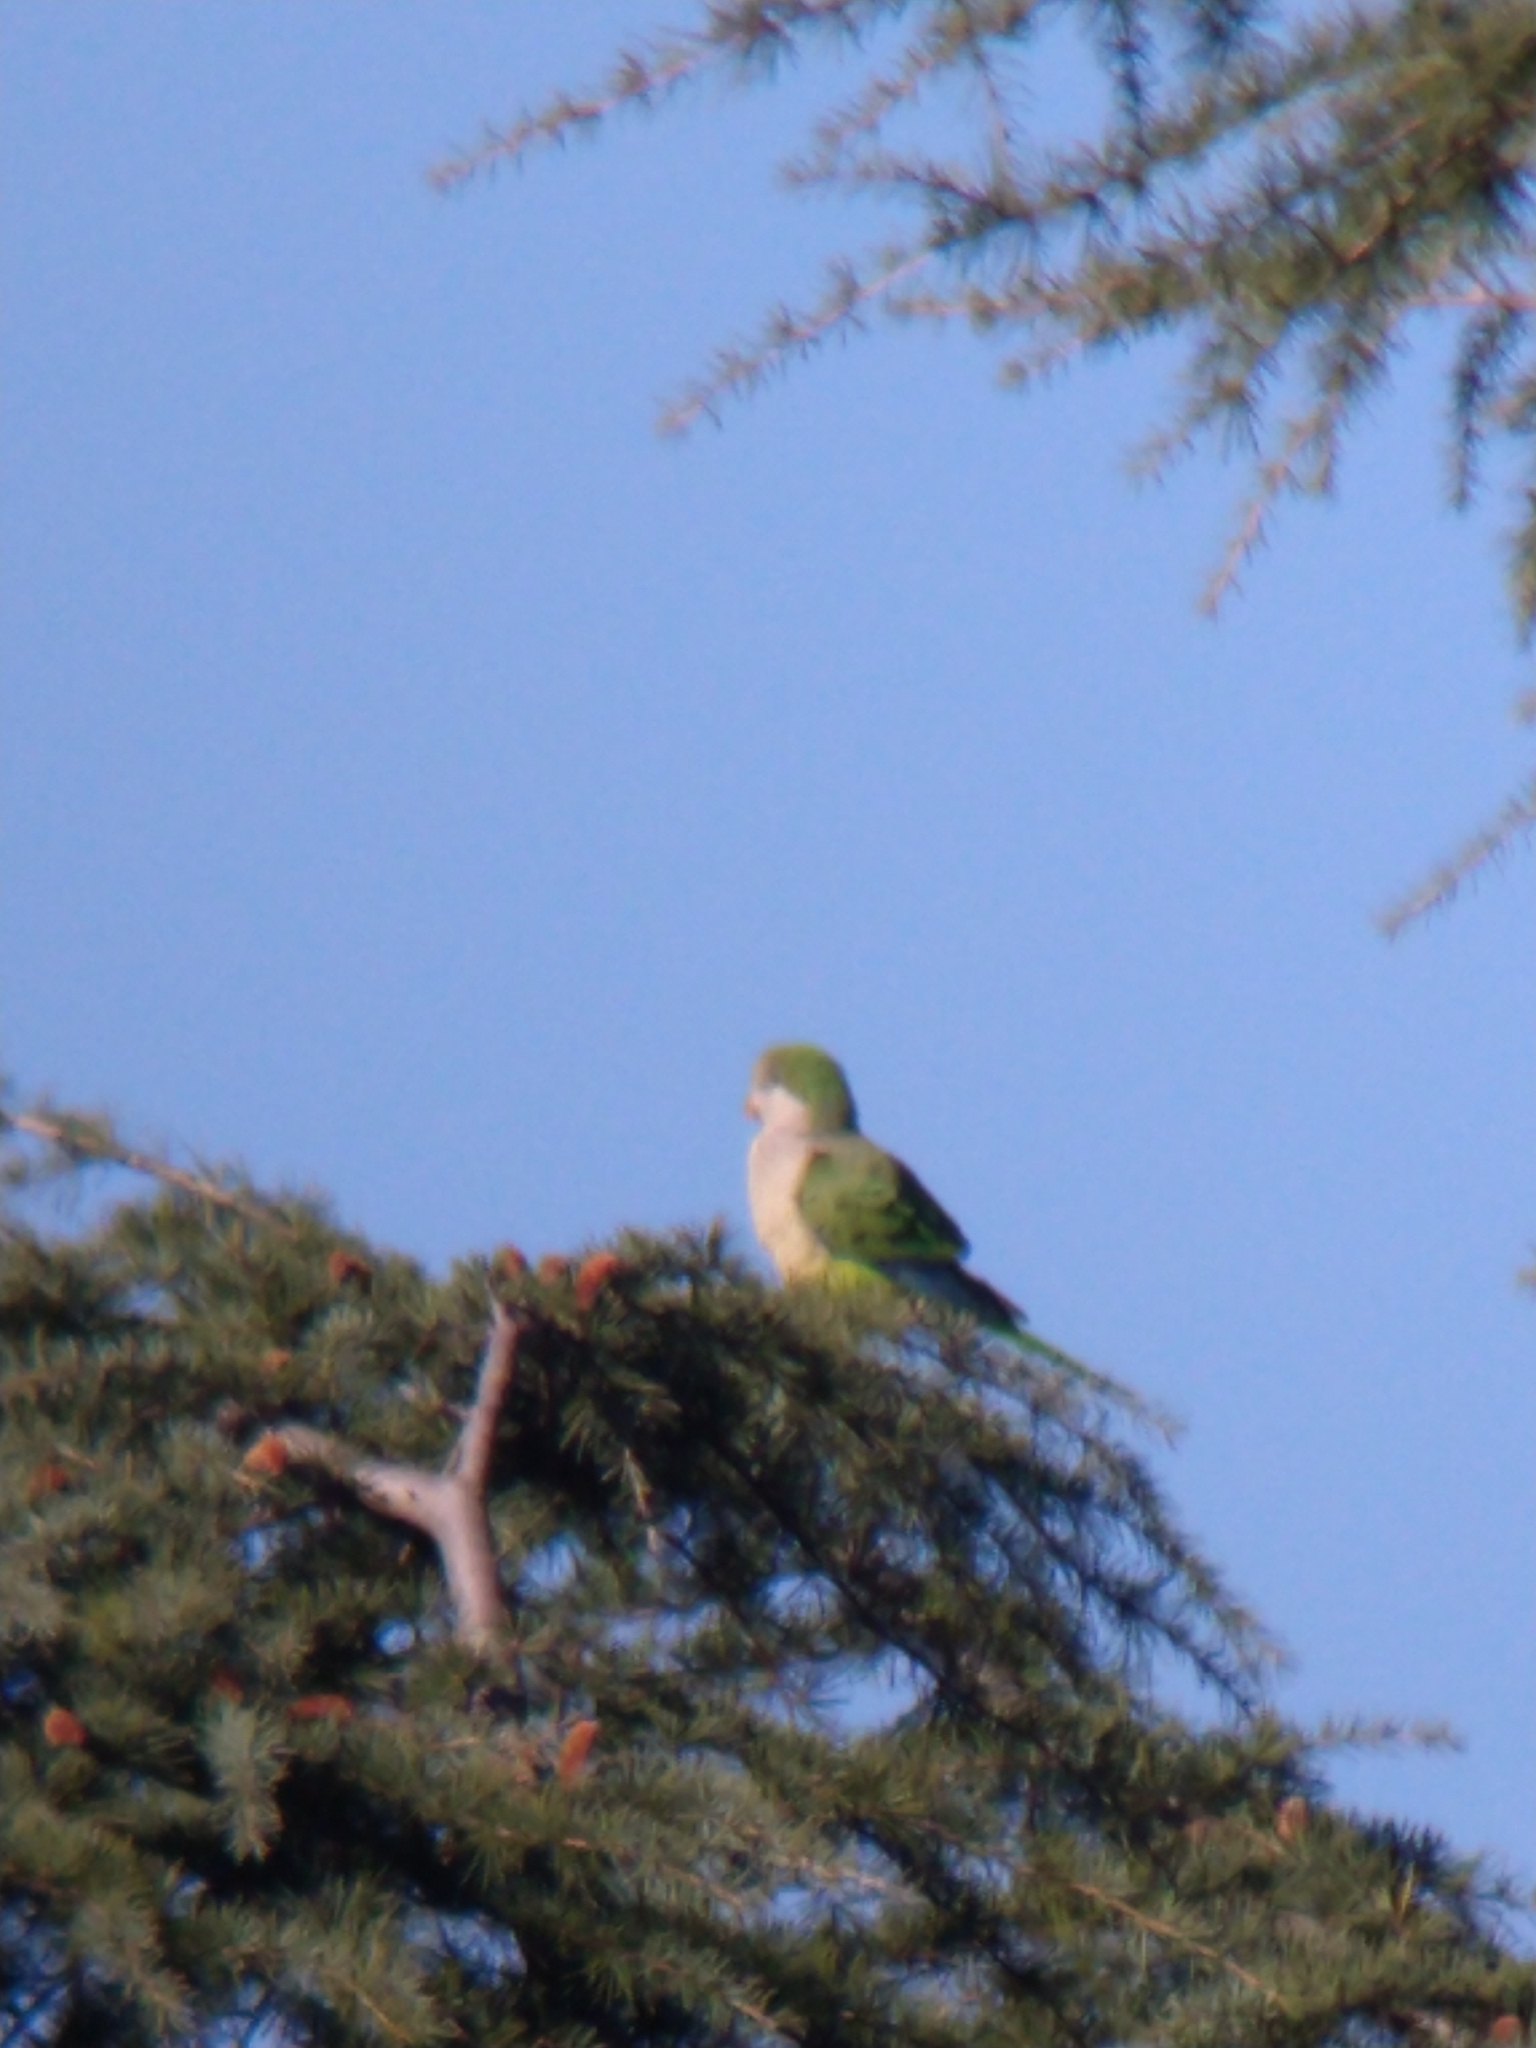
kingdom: Animalia
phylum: Chordata
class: Aves
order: Psittaciformes
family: Psittacidae
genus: Myiopsitta
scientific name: Myiopsitta monachus
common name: Monk parakeet
